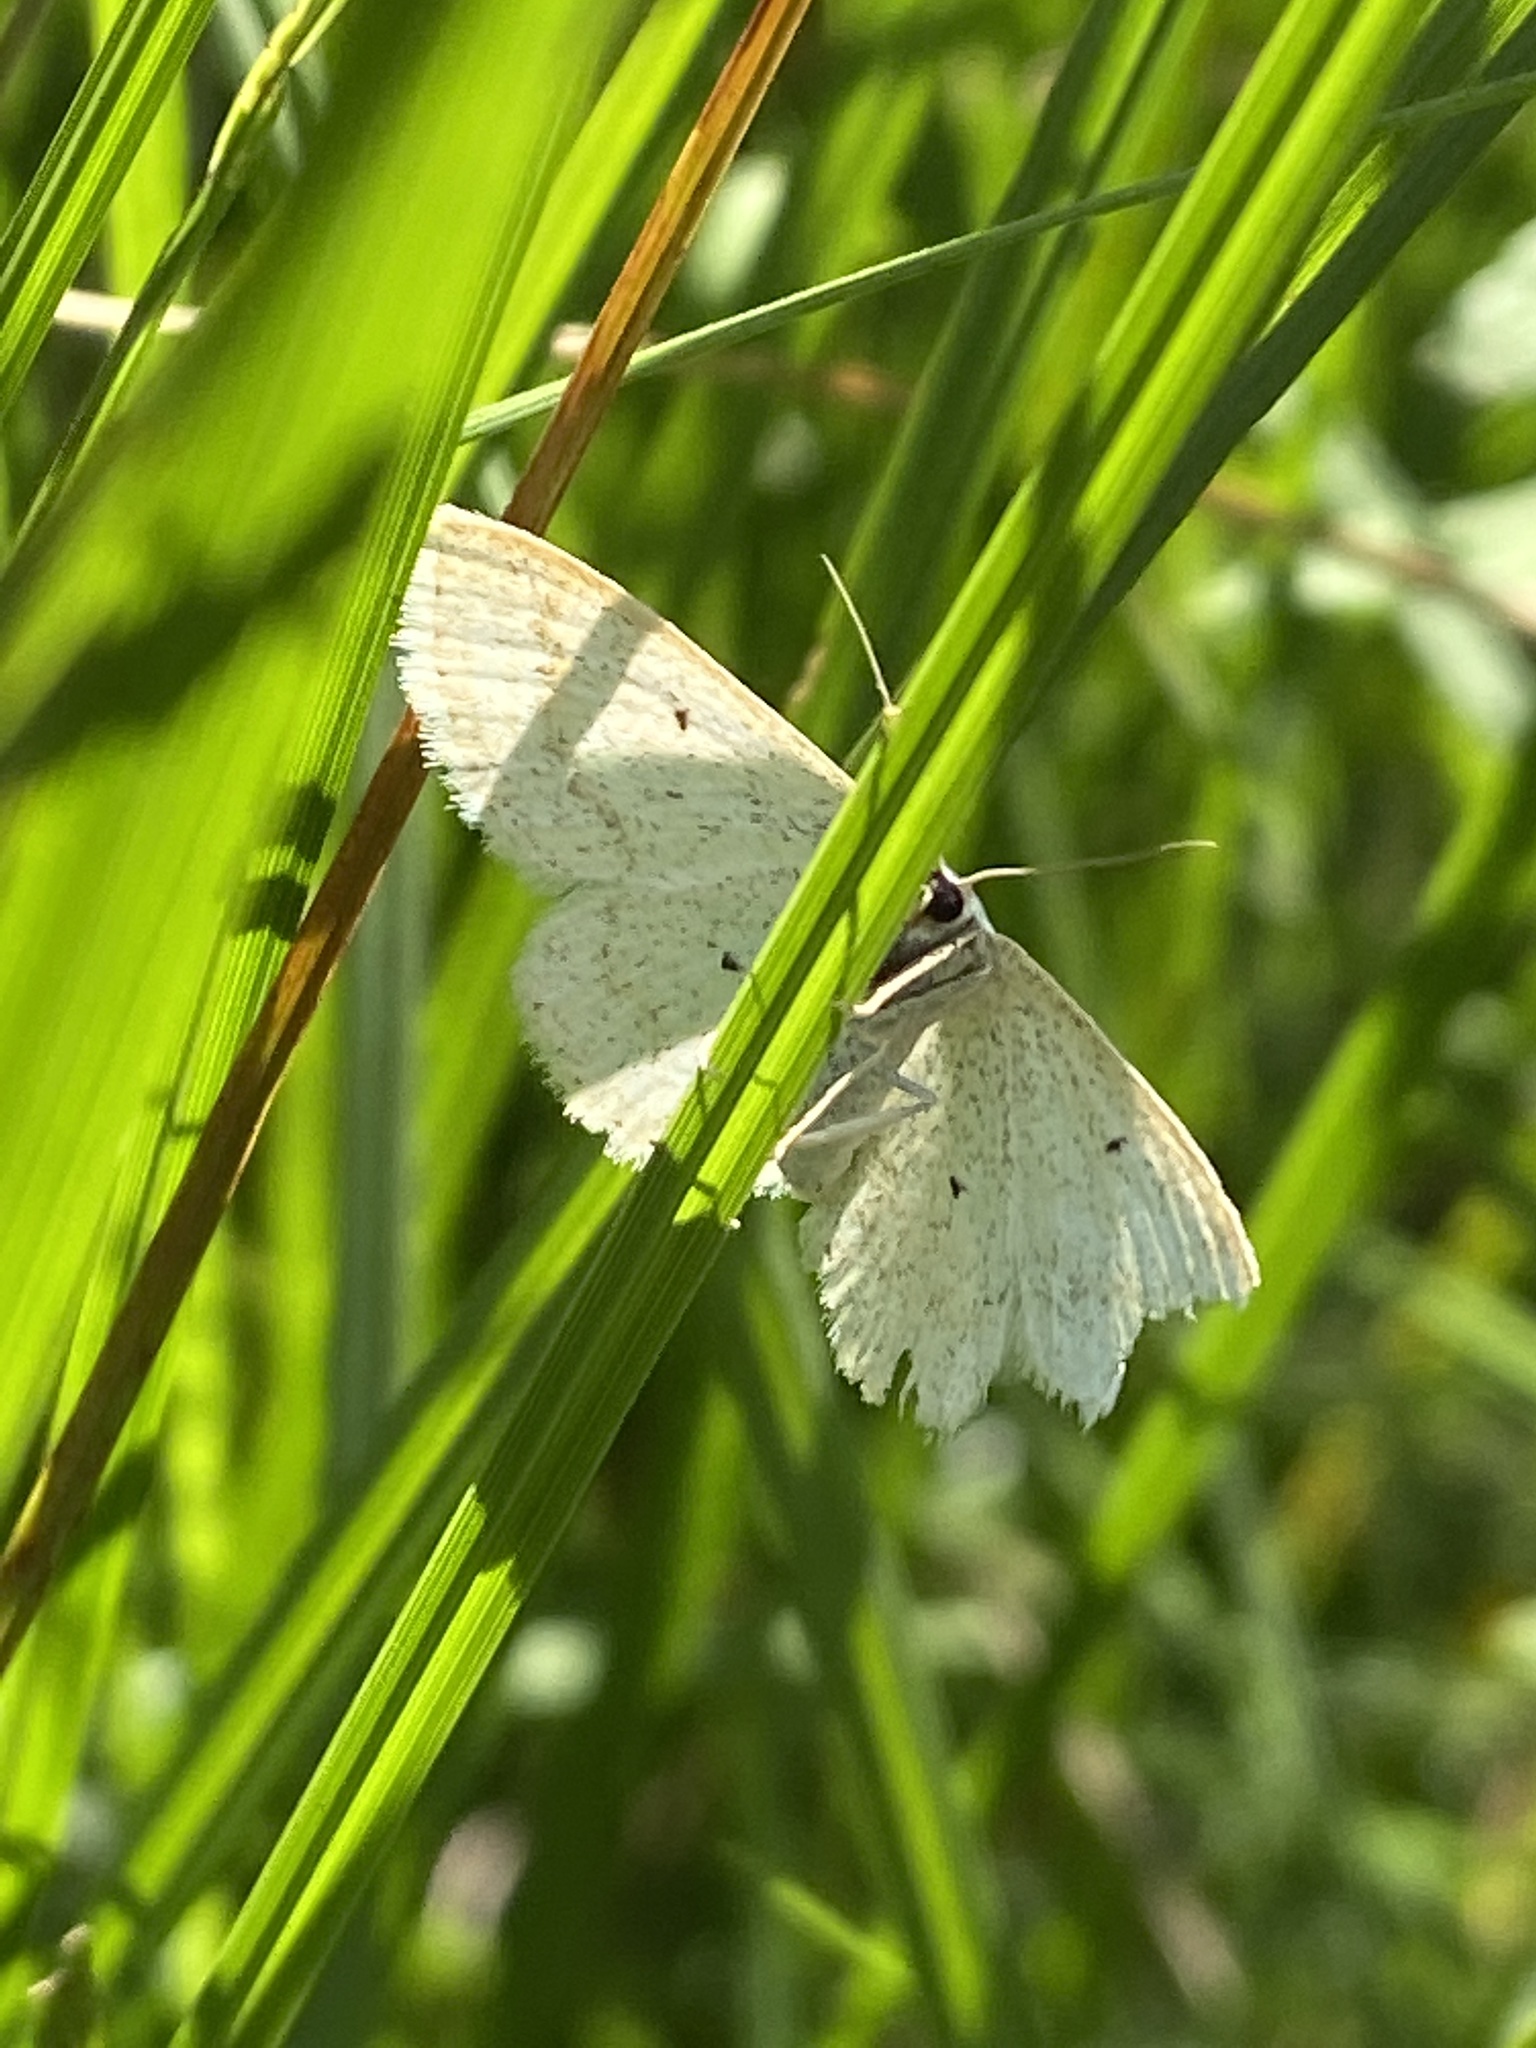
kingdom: Animalia
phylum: Arthropoda
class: Insecta
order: Lepidoptera
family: Geometridae
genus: Scopula
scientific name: Scopula immutata
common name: Lesser cream wave
